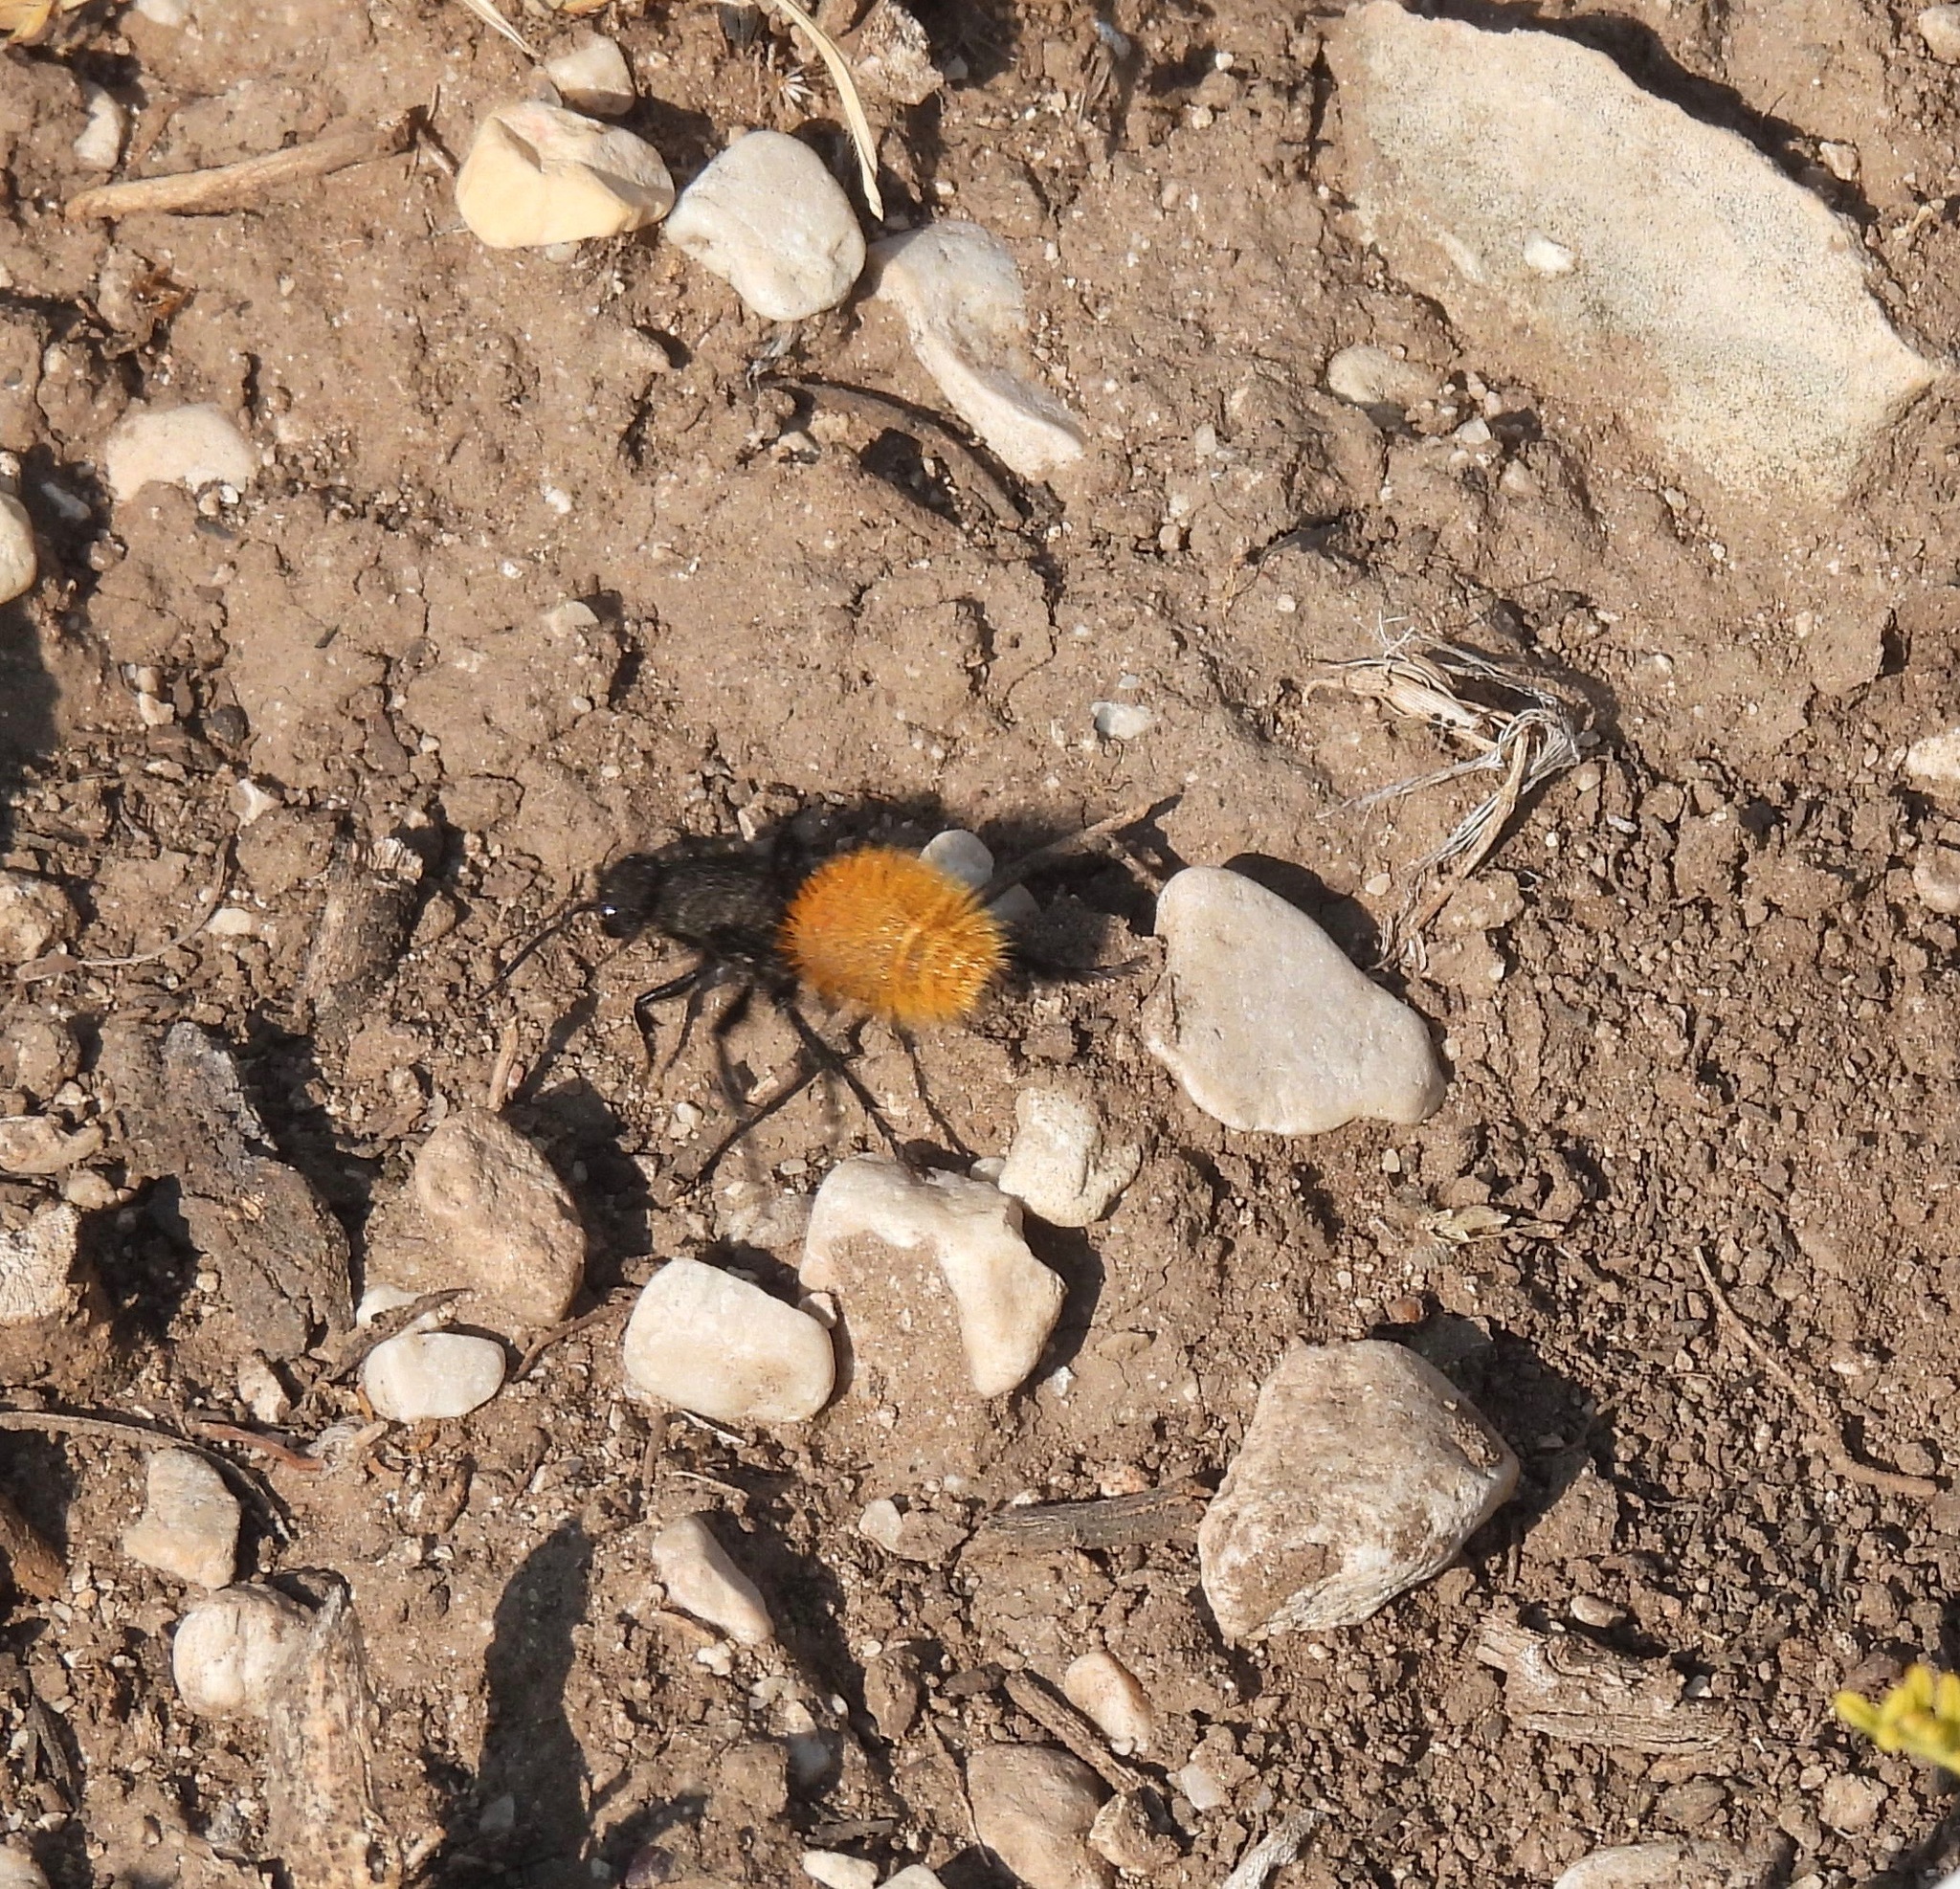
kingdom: Animalia
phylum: Arthropoda
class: Insecta
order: Hymenoptera
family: Mutillidae
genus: Dasymutilla
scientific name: Dasymutilla
